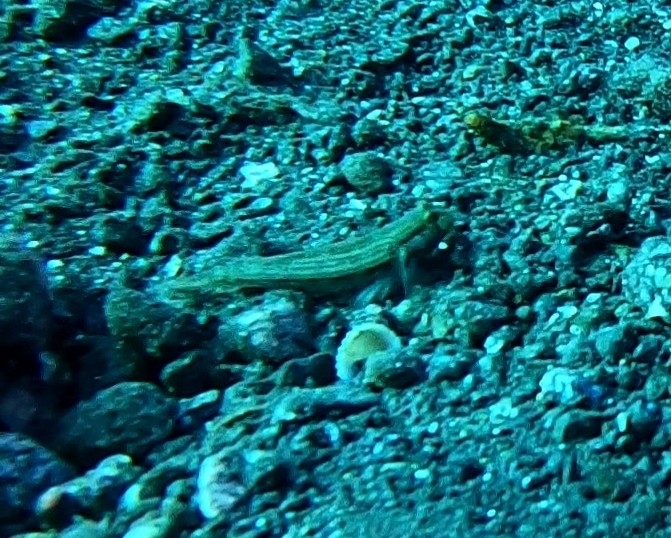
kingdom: Animalia
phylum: Chordata
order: Perciformes
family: Gobiidae
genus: Gnatholepis
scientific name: Gnatholepis thompsoni
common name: Goldspot goby
